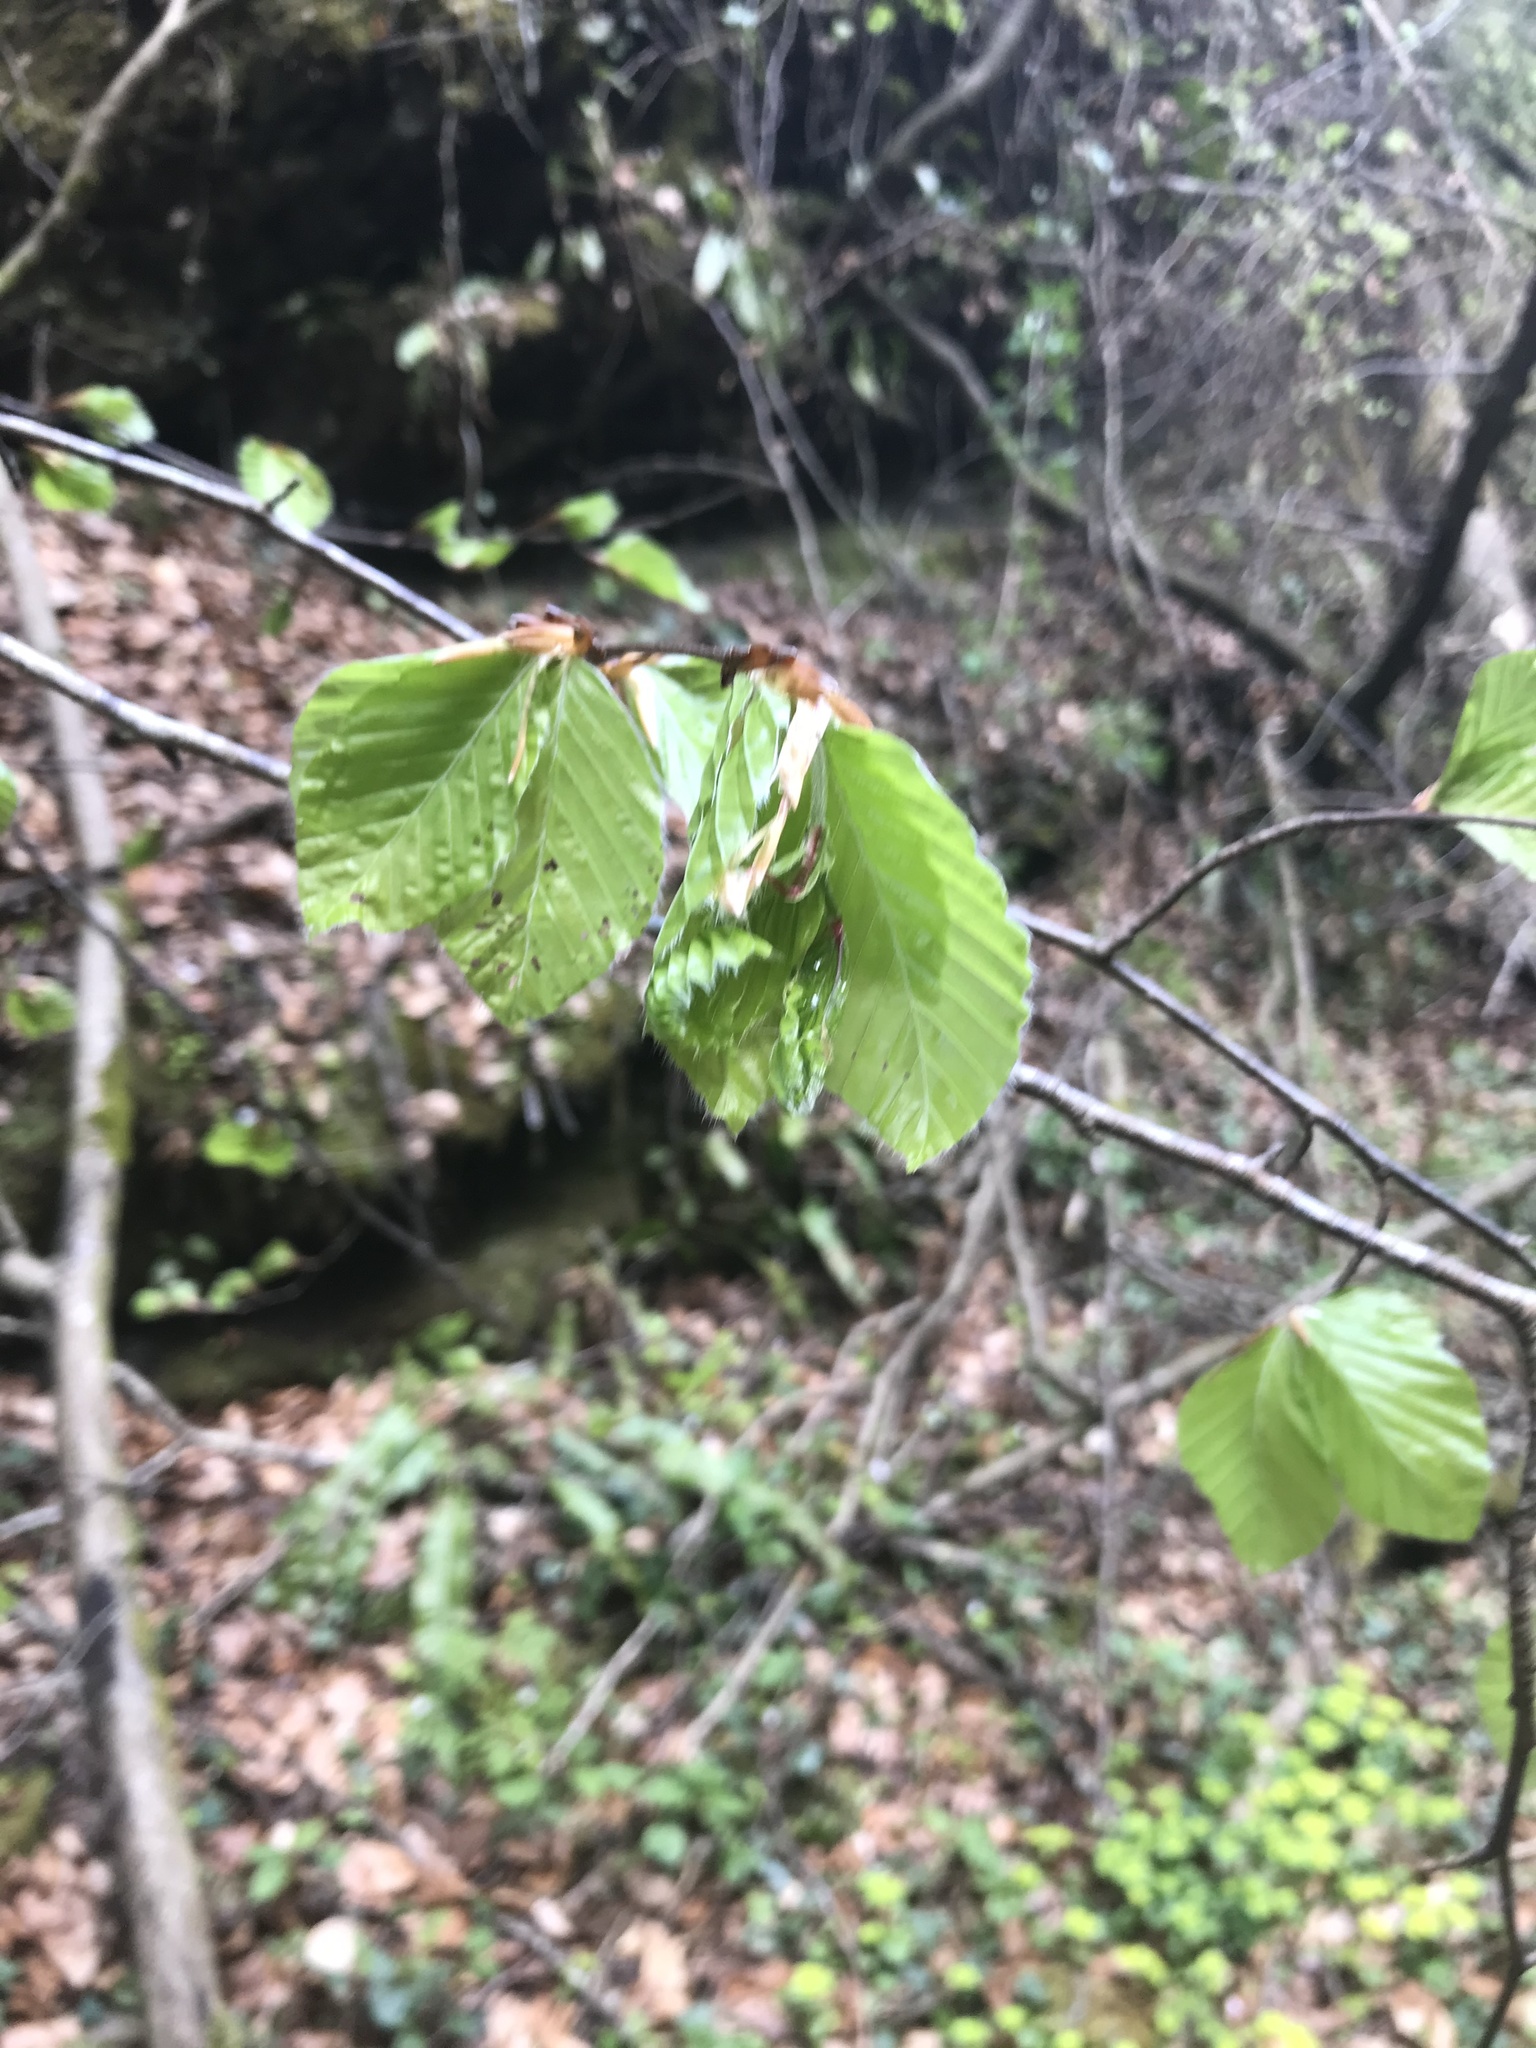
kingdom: Plantae
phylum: Tracheophyta
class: Magnoliopsida
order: Fagales
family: Fagaceae
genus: Fagus
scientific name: Fagus sylvatica
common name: Beech
